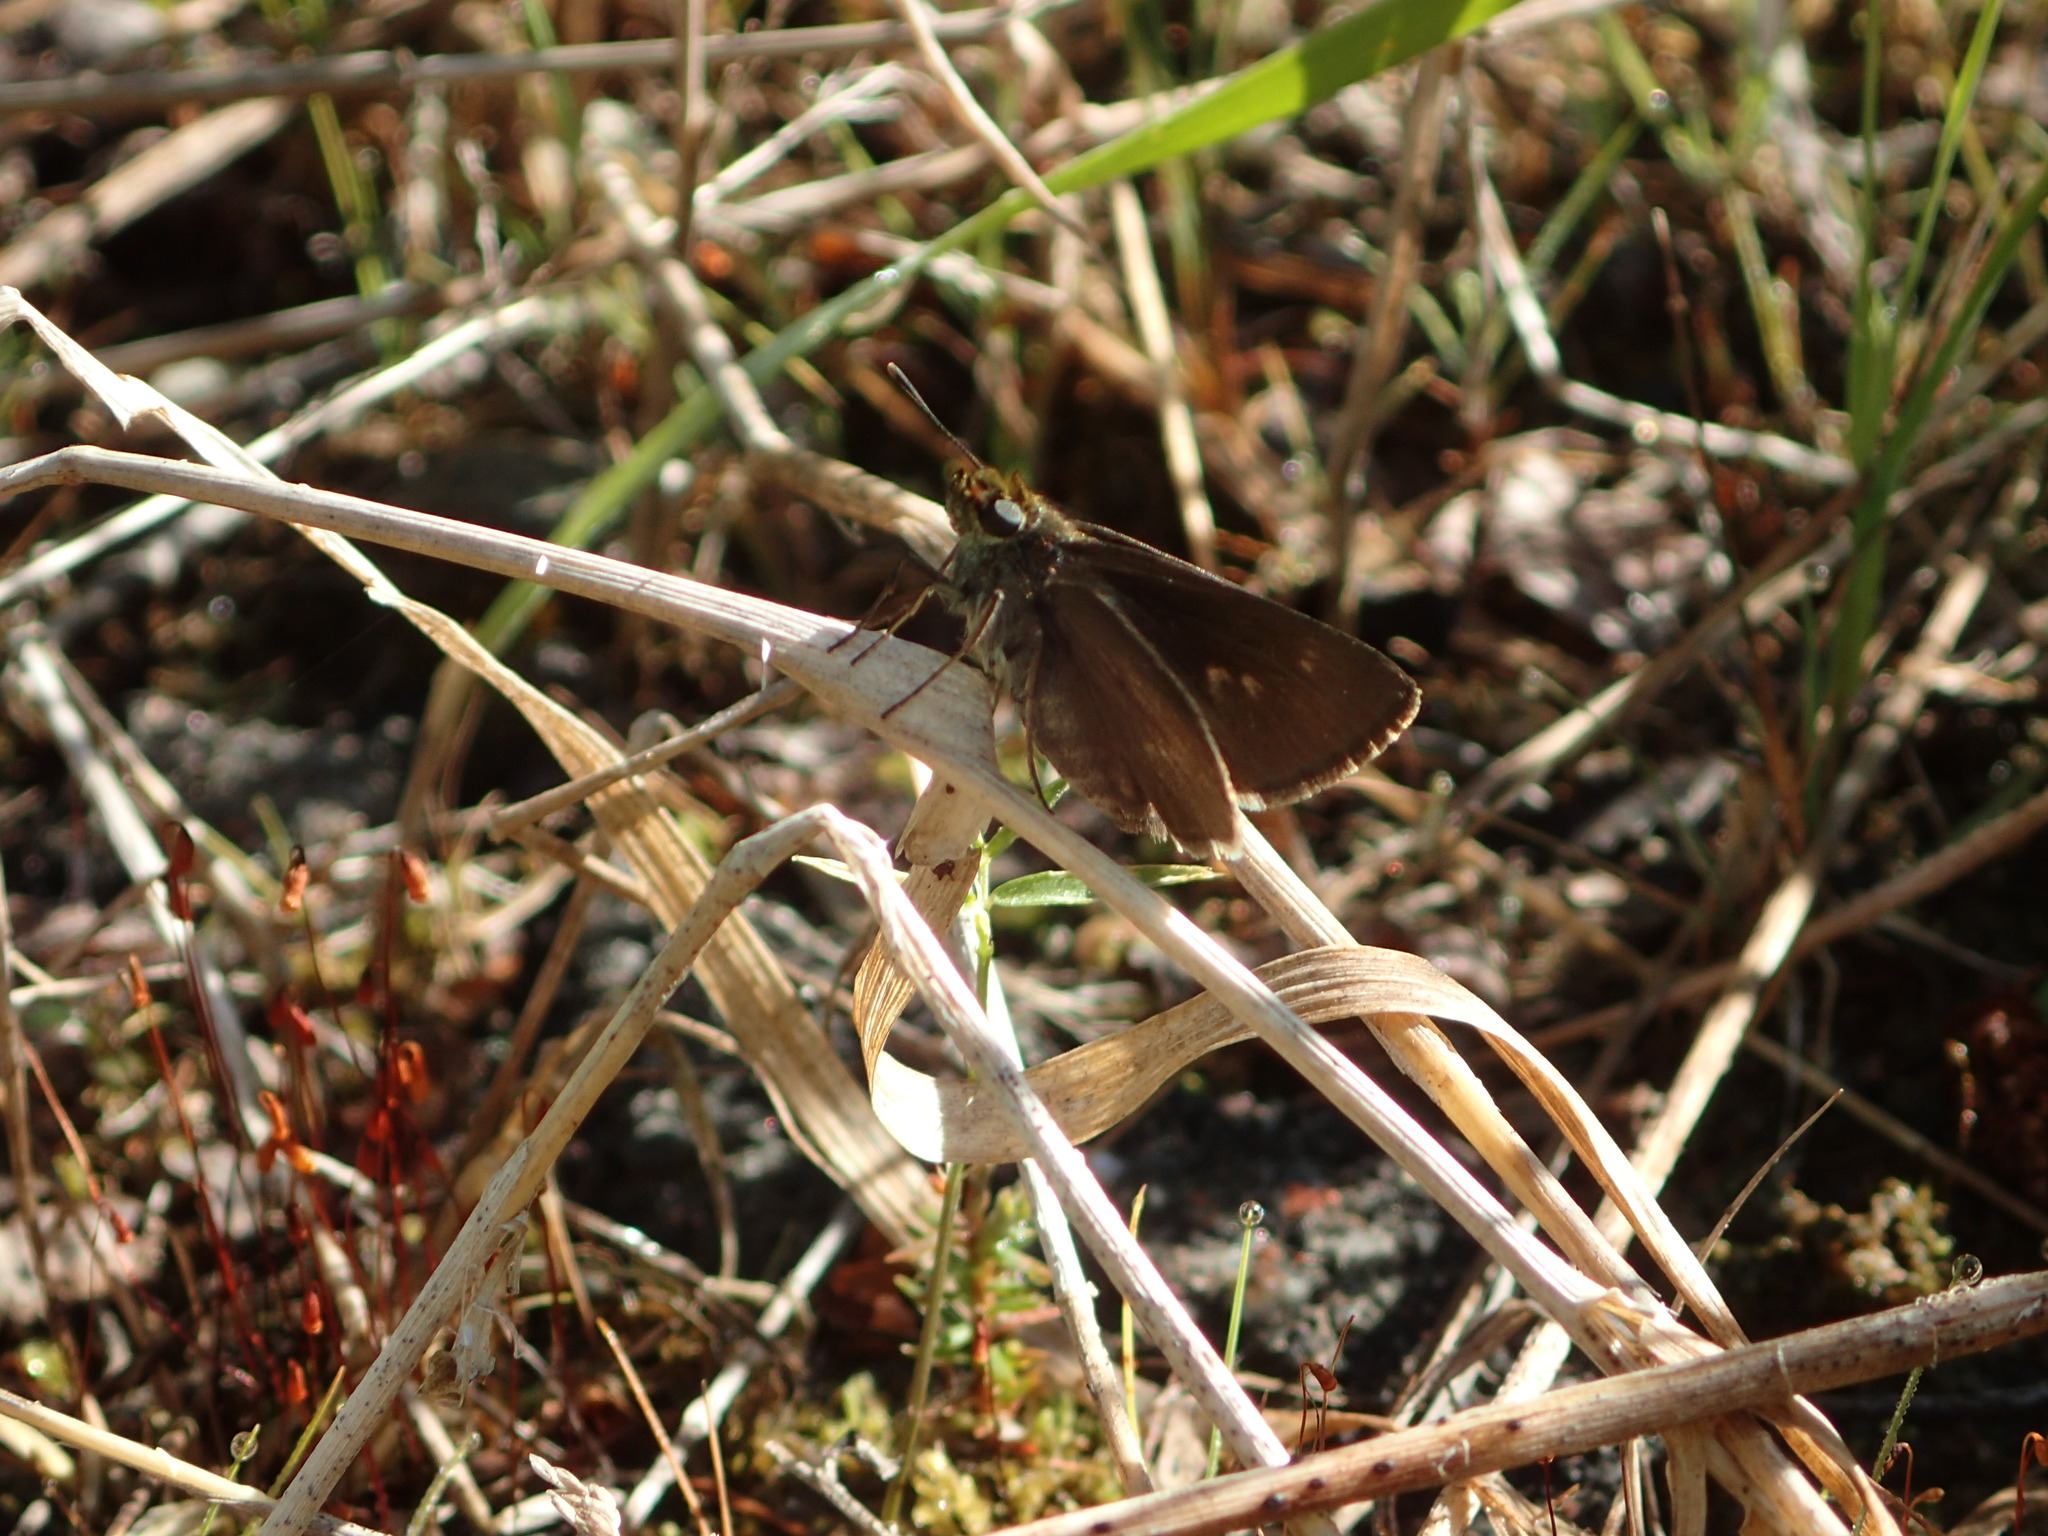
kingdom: Animalia
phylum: Arthropoda
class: Insecta
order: Lepidoptera
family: Hesperiidae
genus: Euphyes
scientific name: Euphyes vestris
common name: Dun skipper
